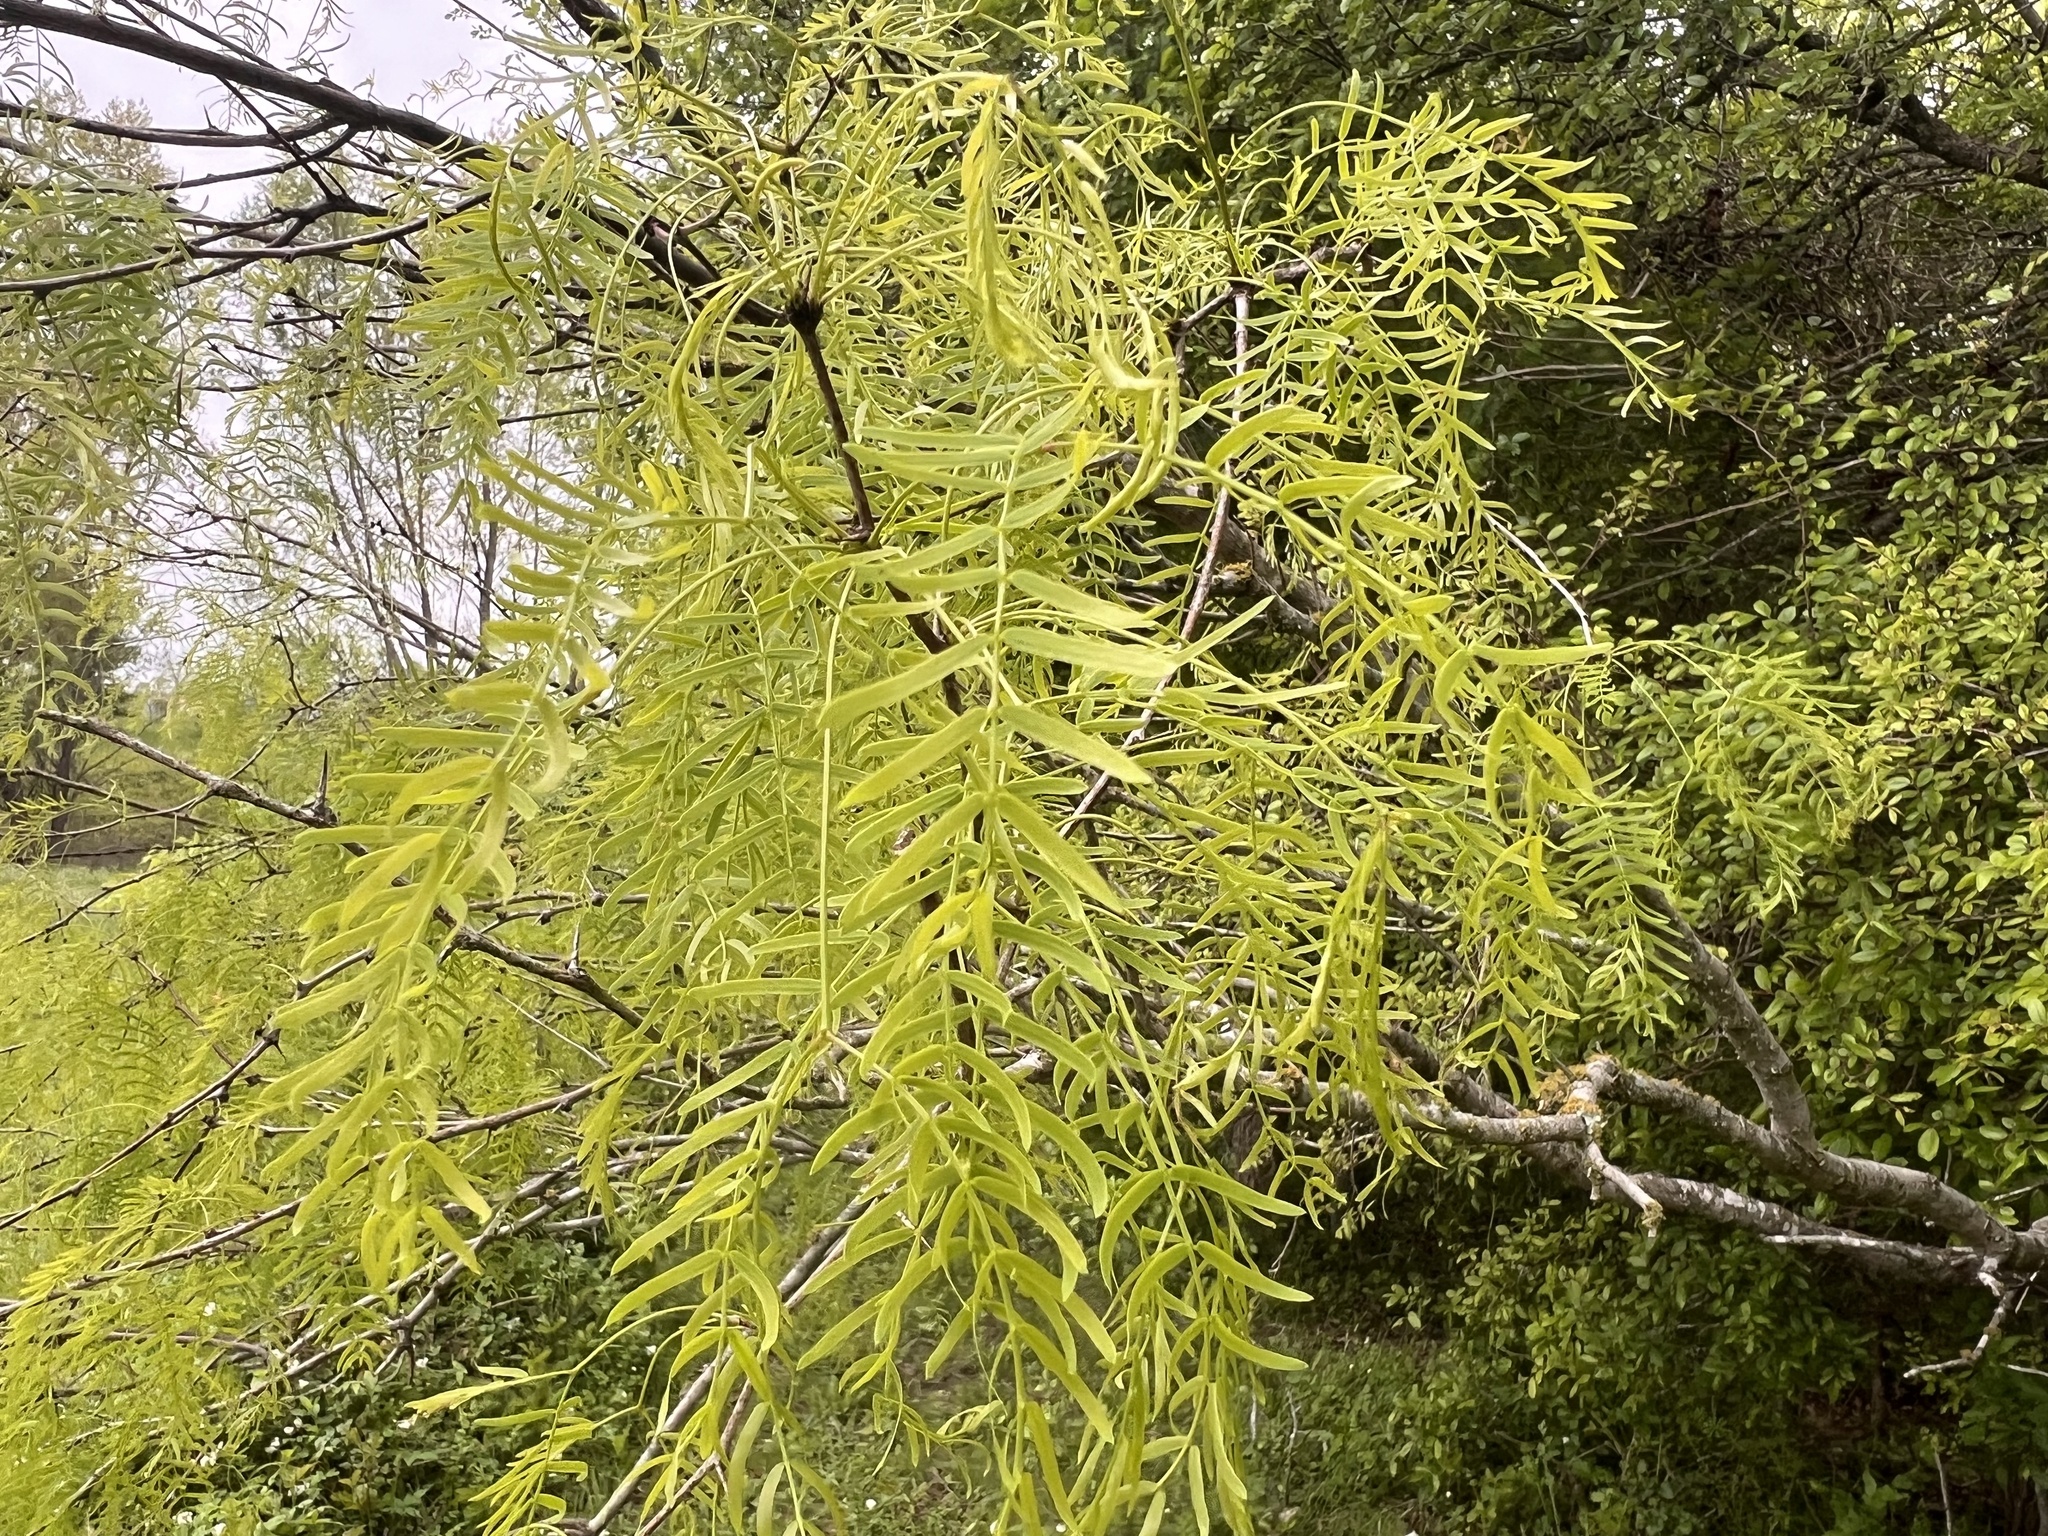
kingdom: Plantae
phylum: Tracheophyta
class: Magnoliopsida
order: Fabales
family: Fabaceae
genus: Prosopis
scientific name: Prosopis glandulosa
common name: Honey mesquite
